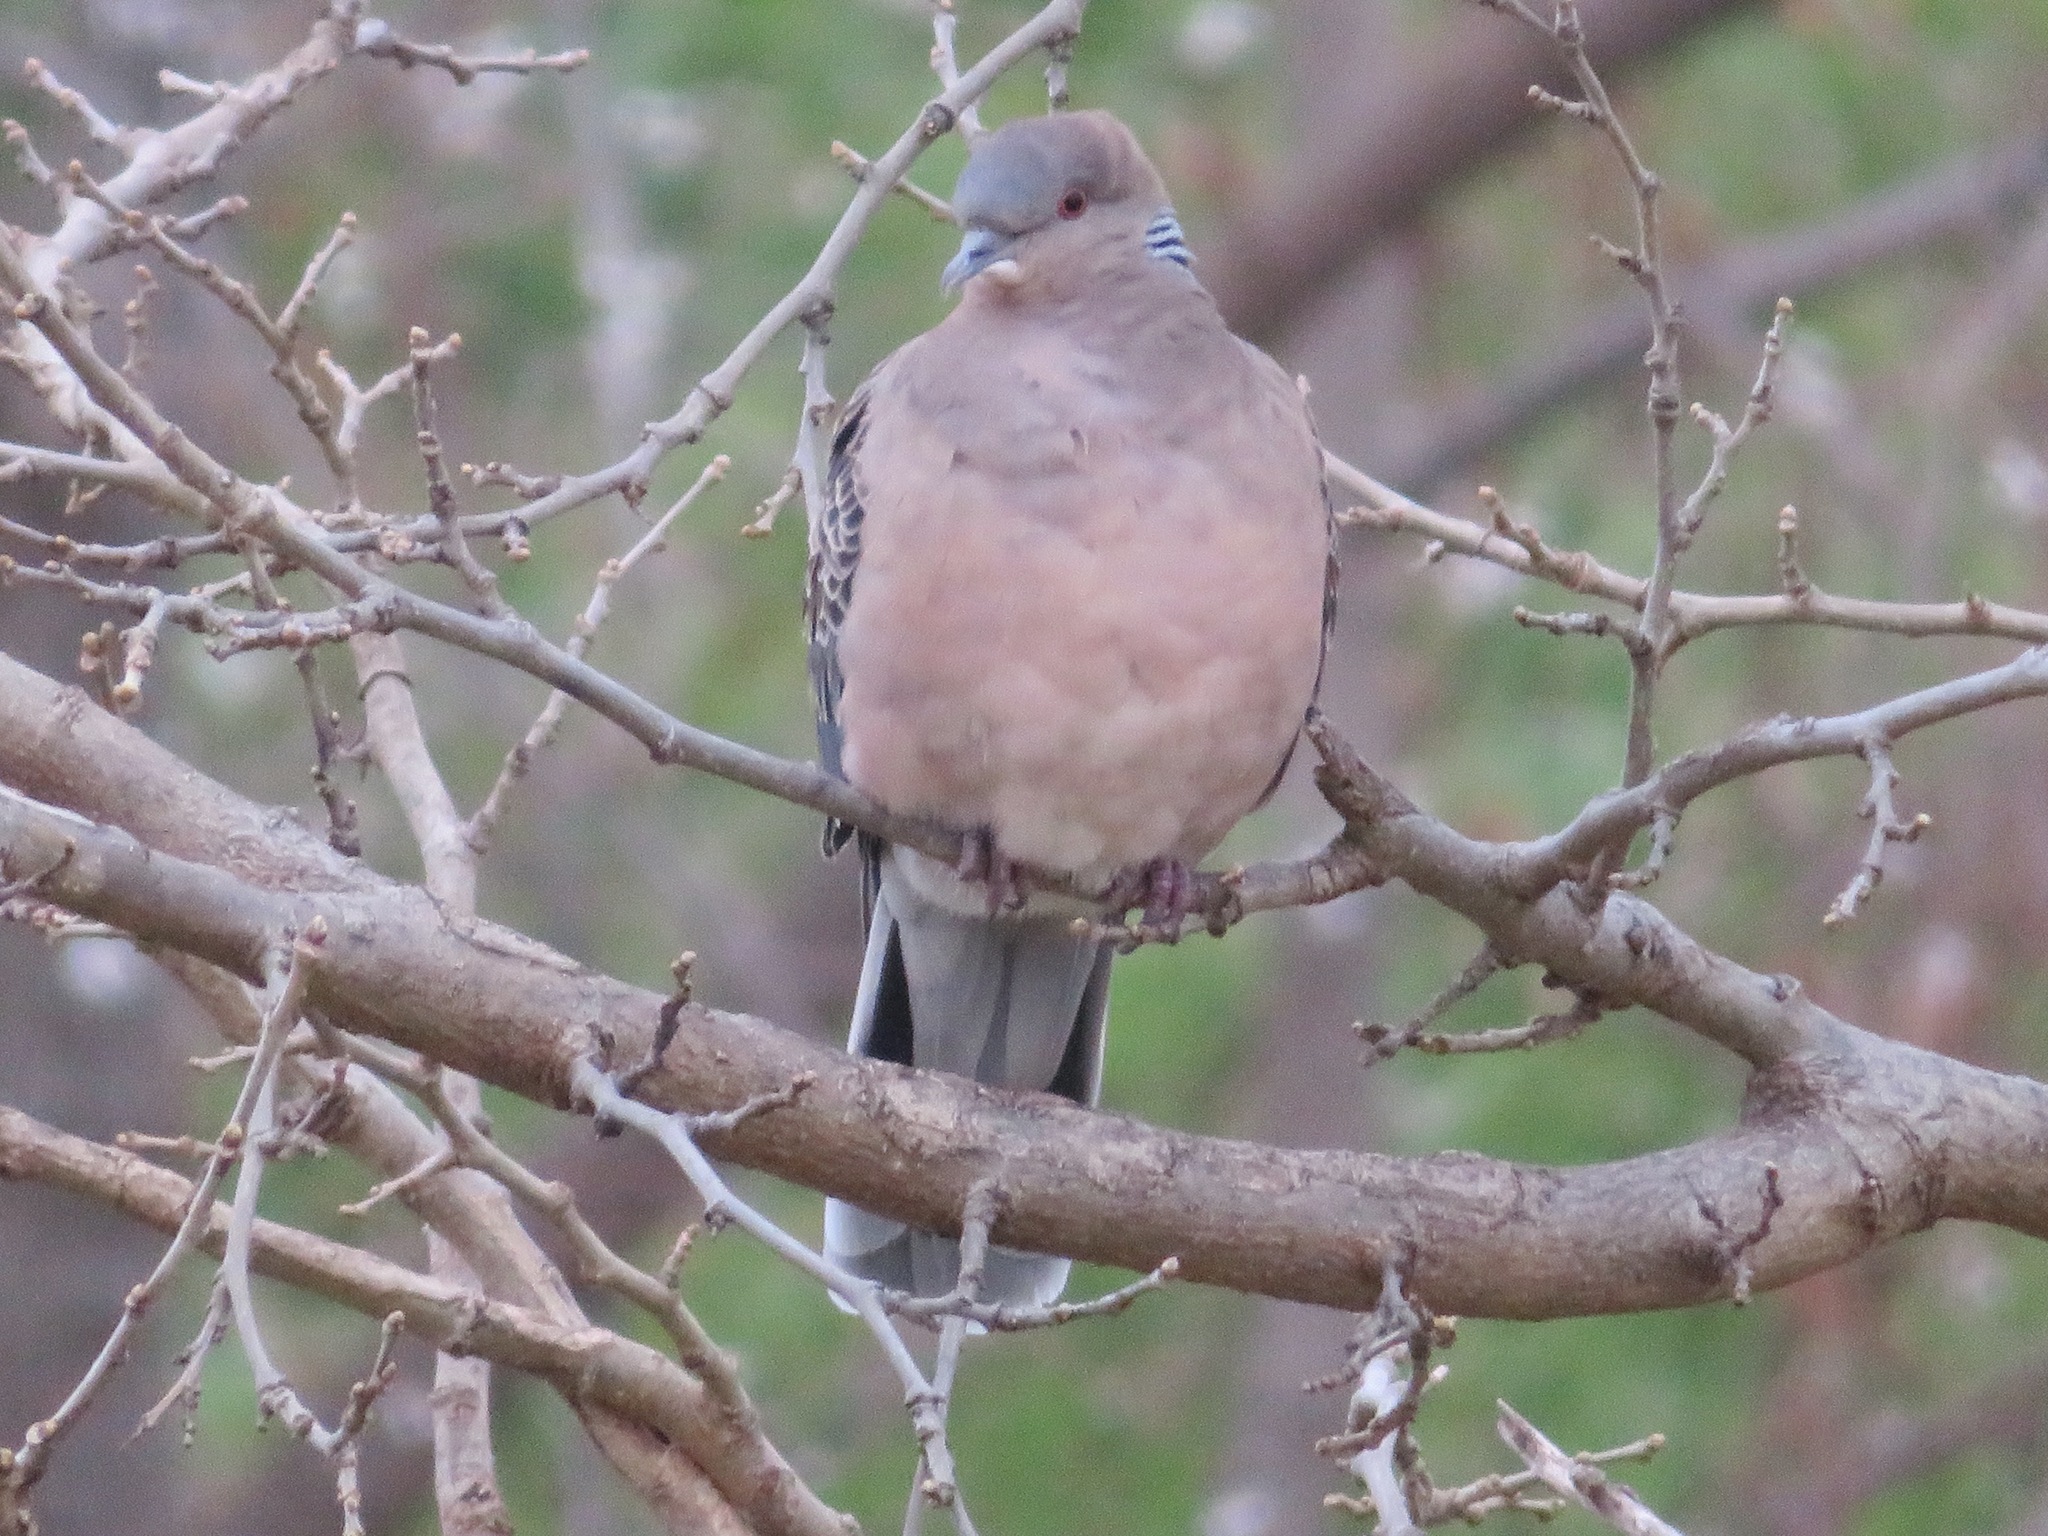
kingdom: Animalia
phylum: Chordata
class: Aves
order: Columbiformes
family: Columbidae
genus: Streptopelia
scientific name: Streptopelia orientalis
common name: Oriental turtle dove
